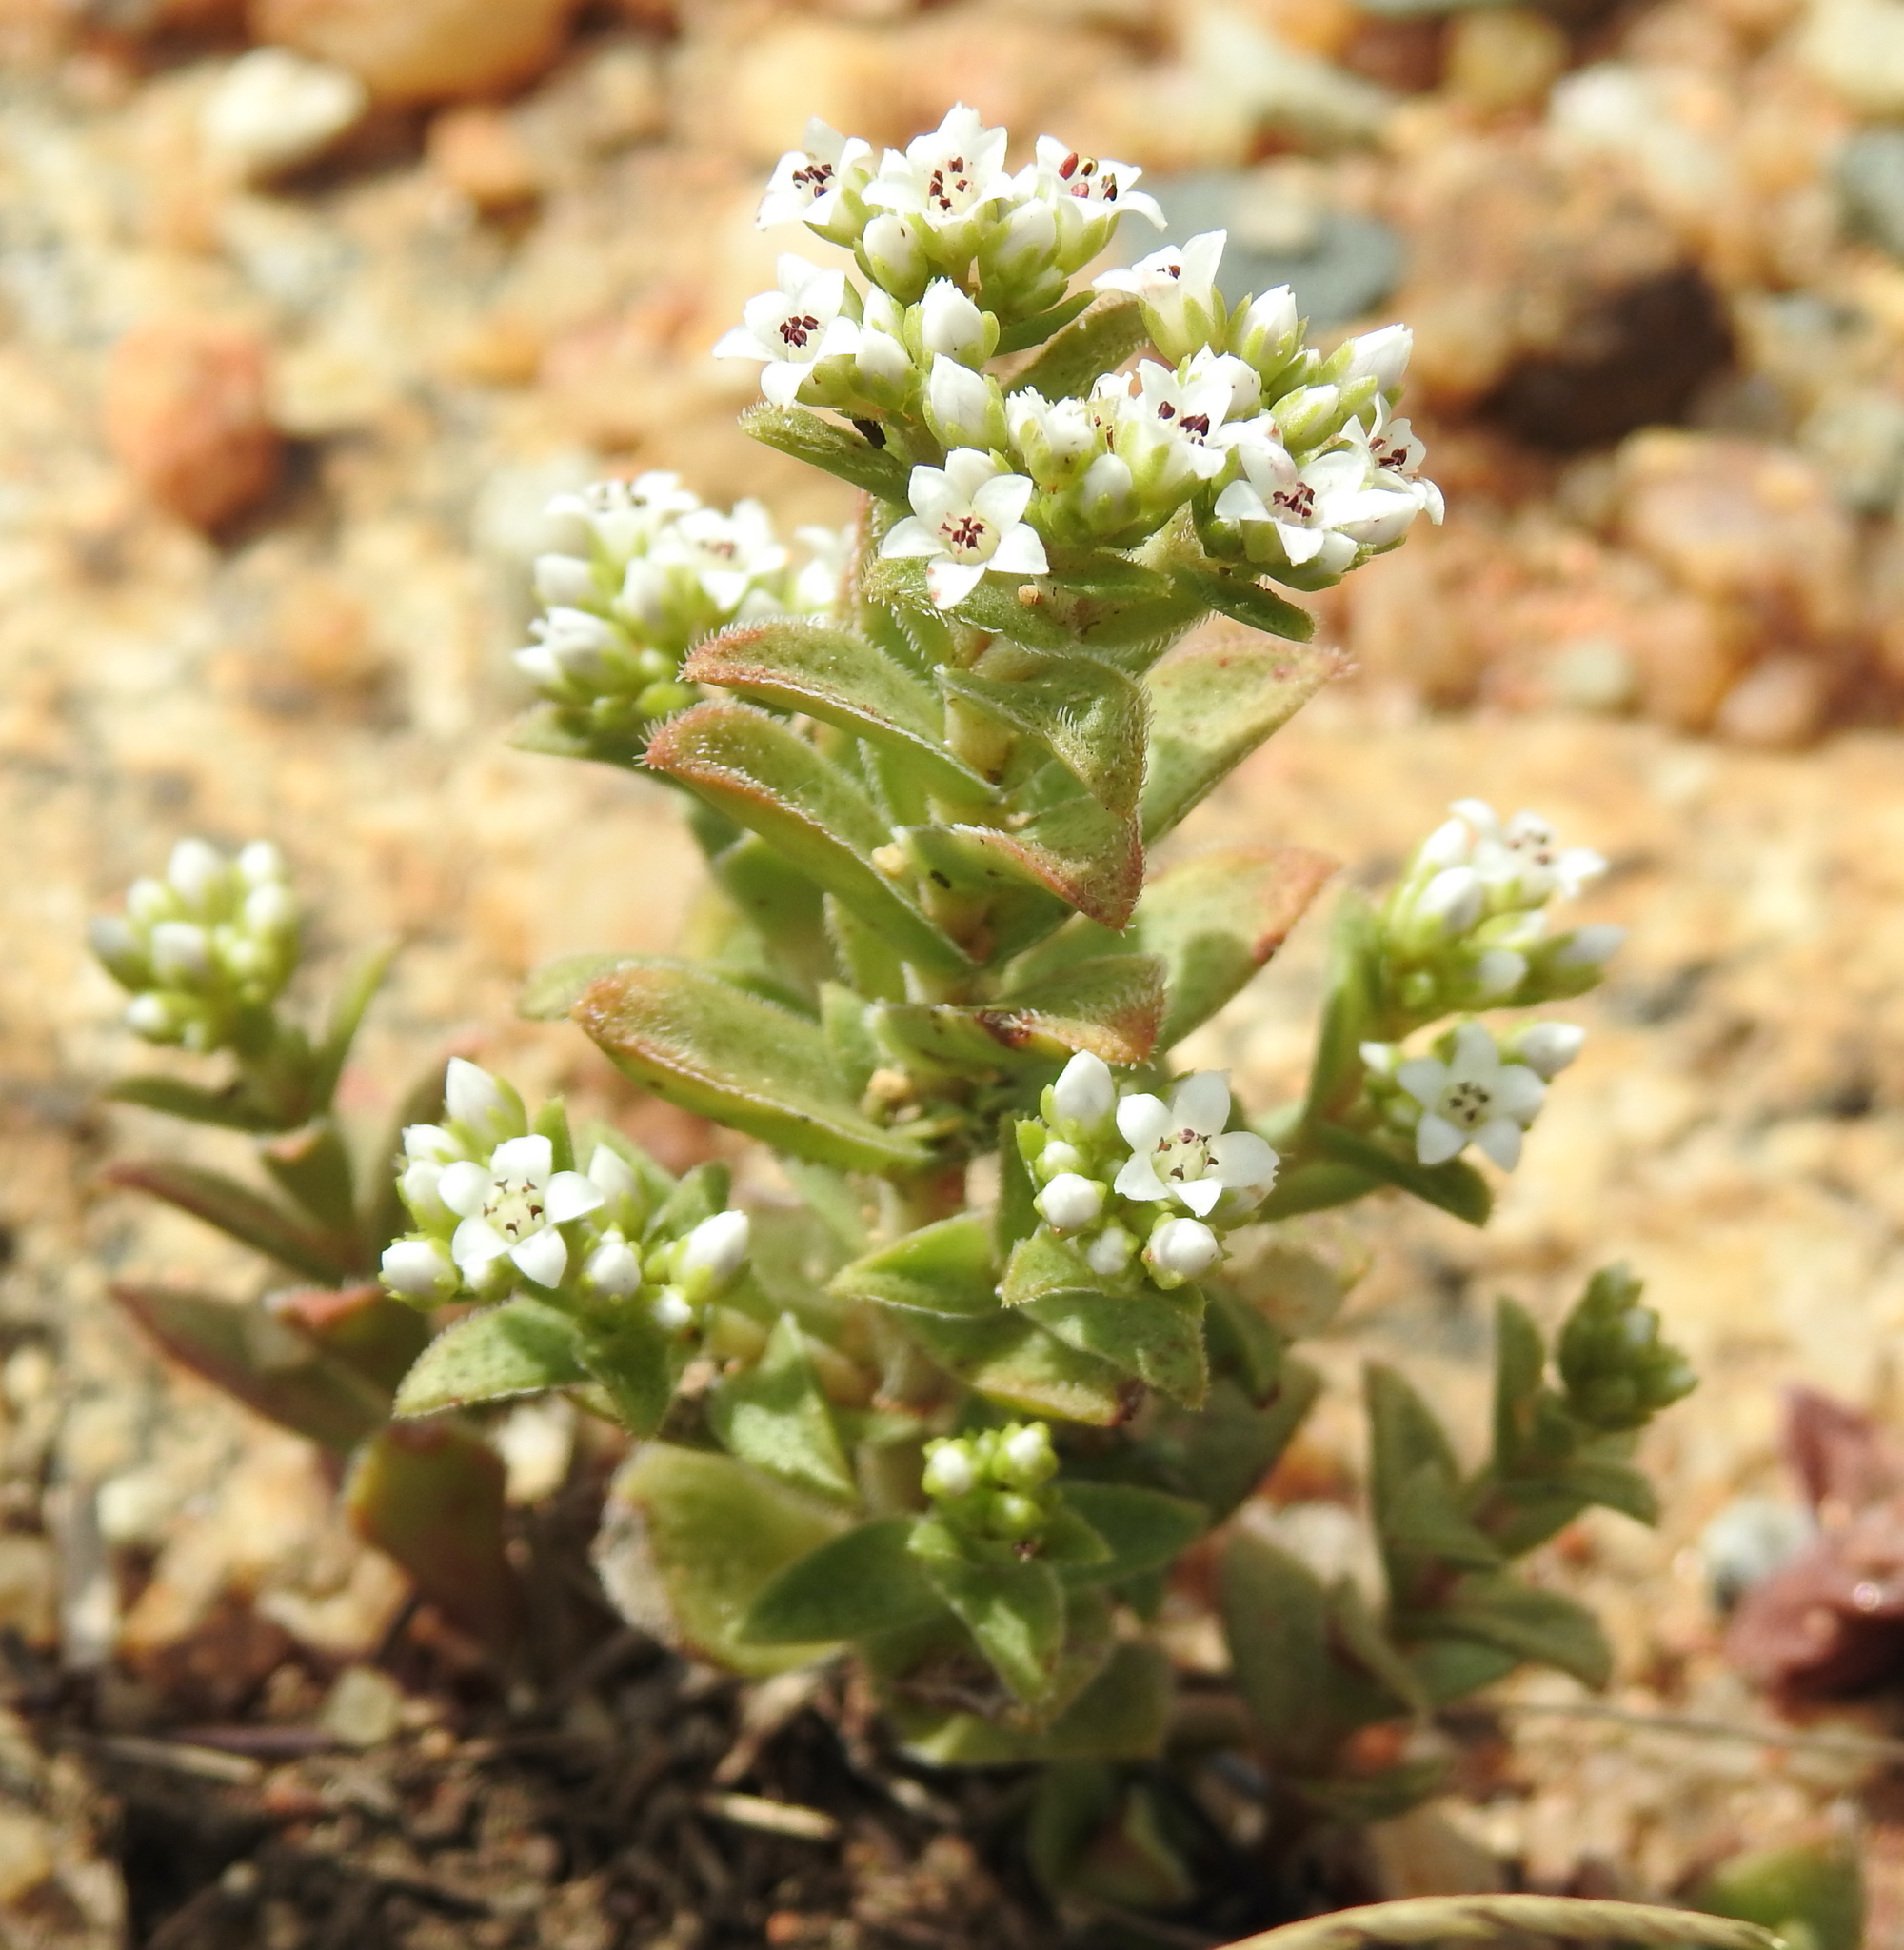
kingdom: Plantae
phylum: Tracheophyta
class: Magnoliopsida
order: Saxifragales
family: Crassulaceae
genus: Crassula
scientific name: Crassula setulosa
